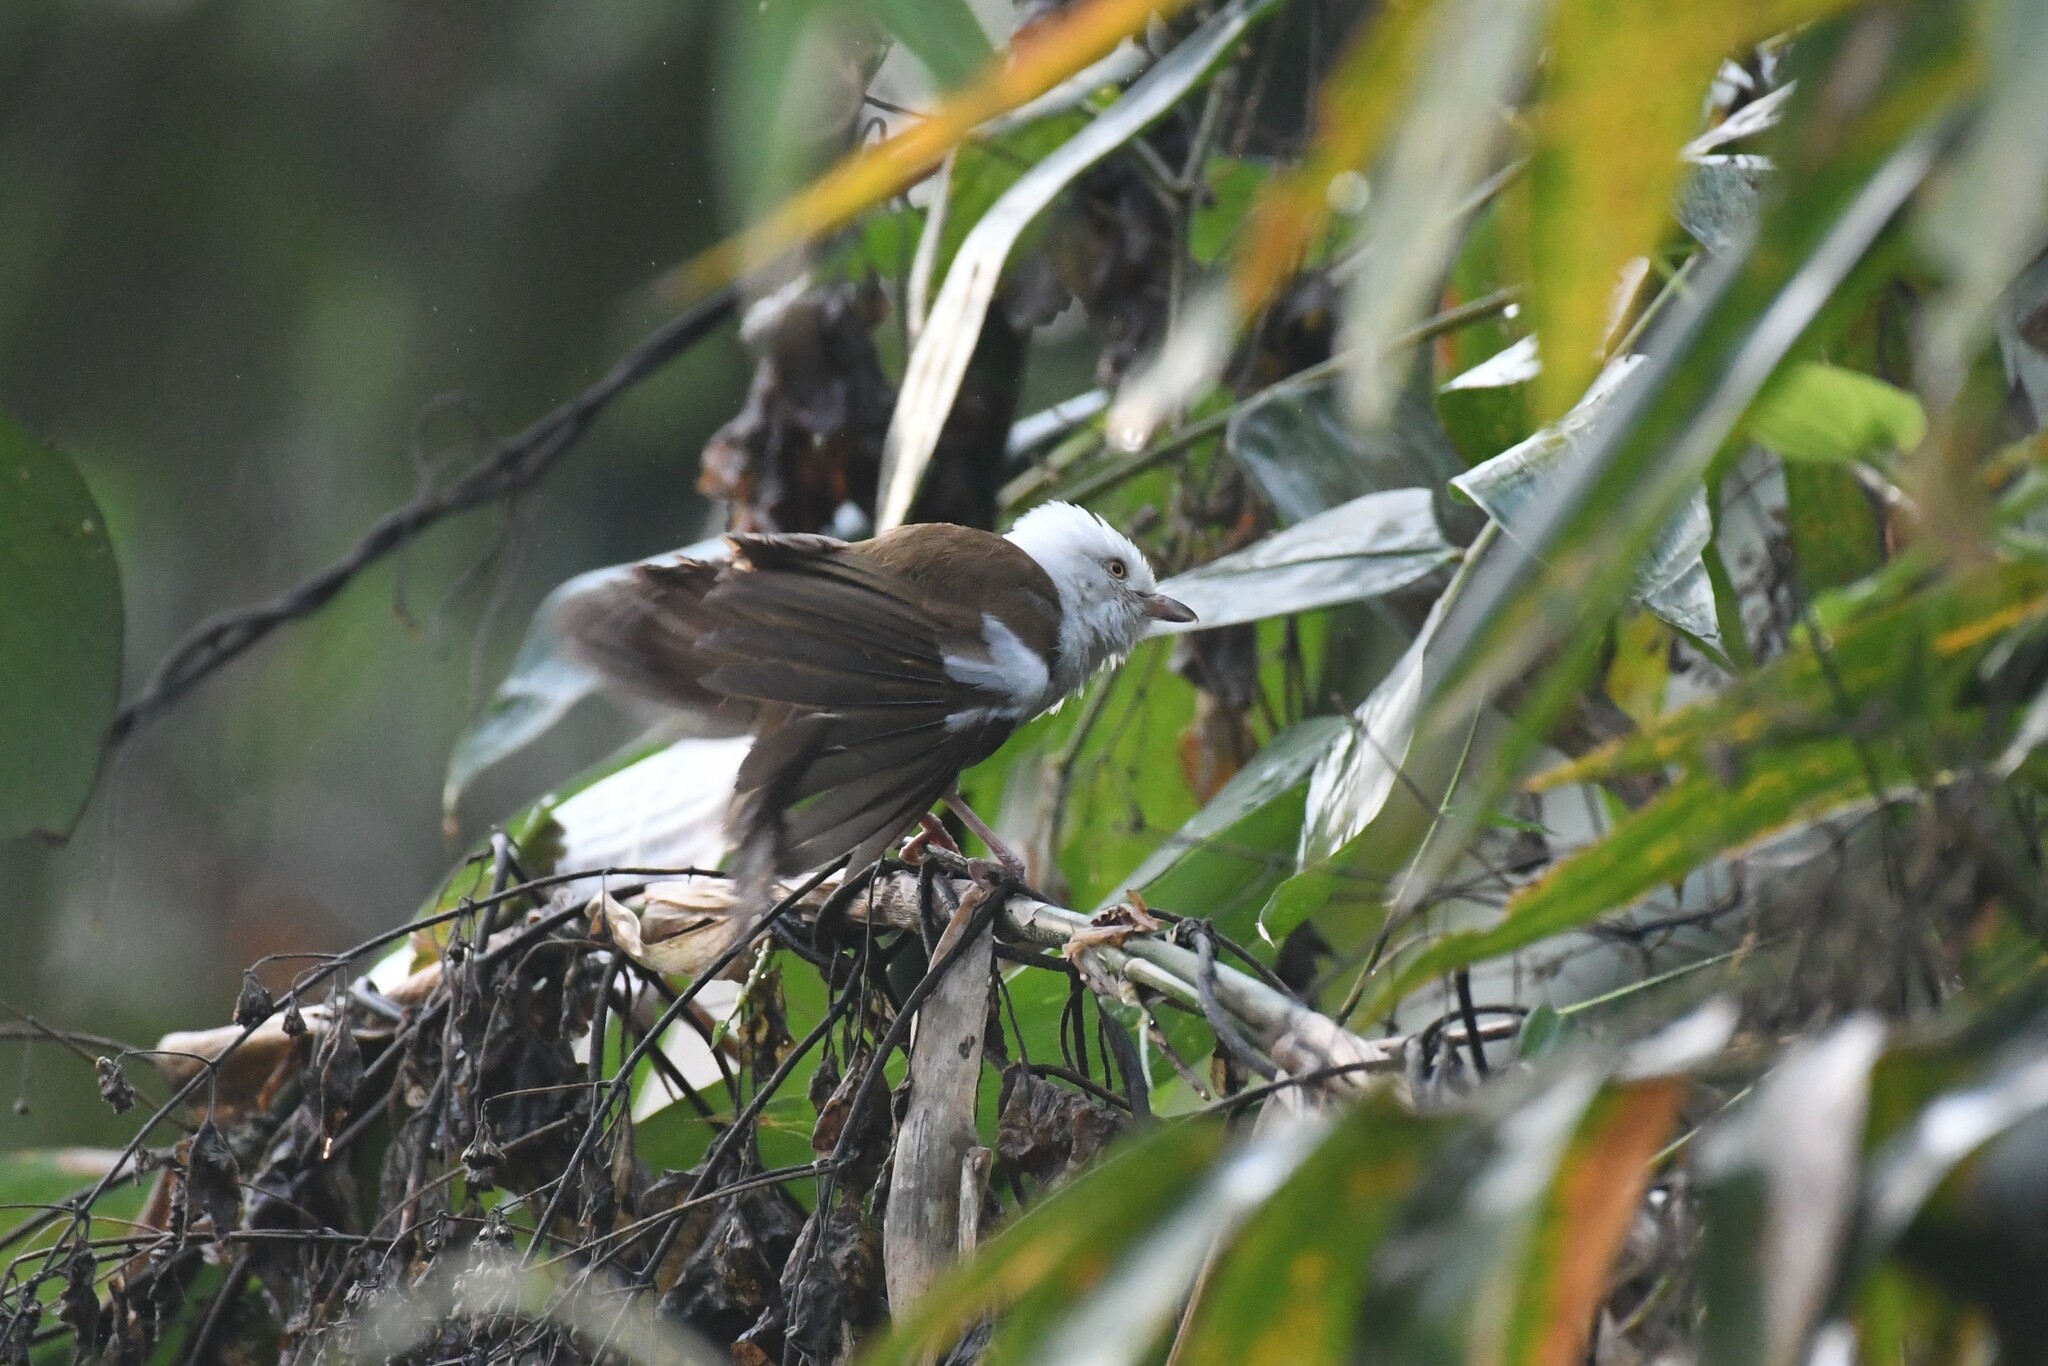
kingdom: Animalia
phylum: Chordata
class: Aves
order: Passeriformes
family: Pellorneidae
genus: Gampsorhynchus
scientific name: Gampsorhynchus rufulus
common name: White-hooded babbler
